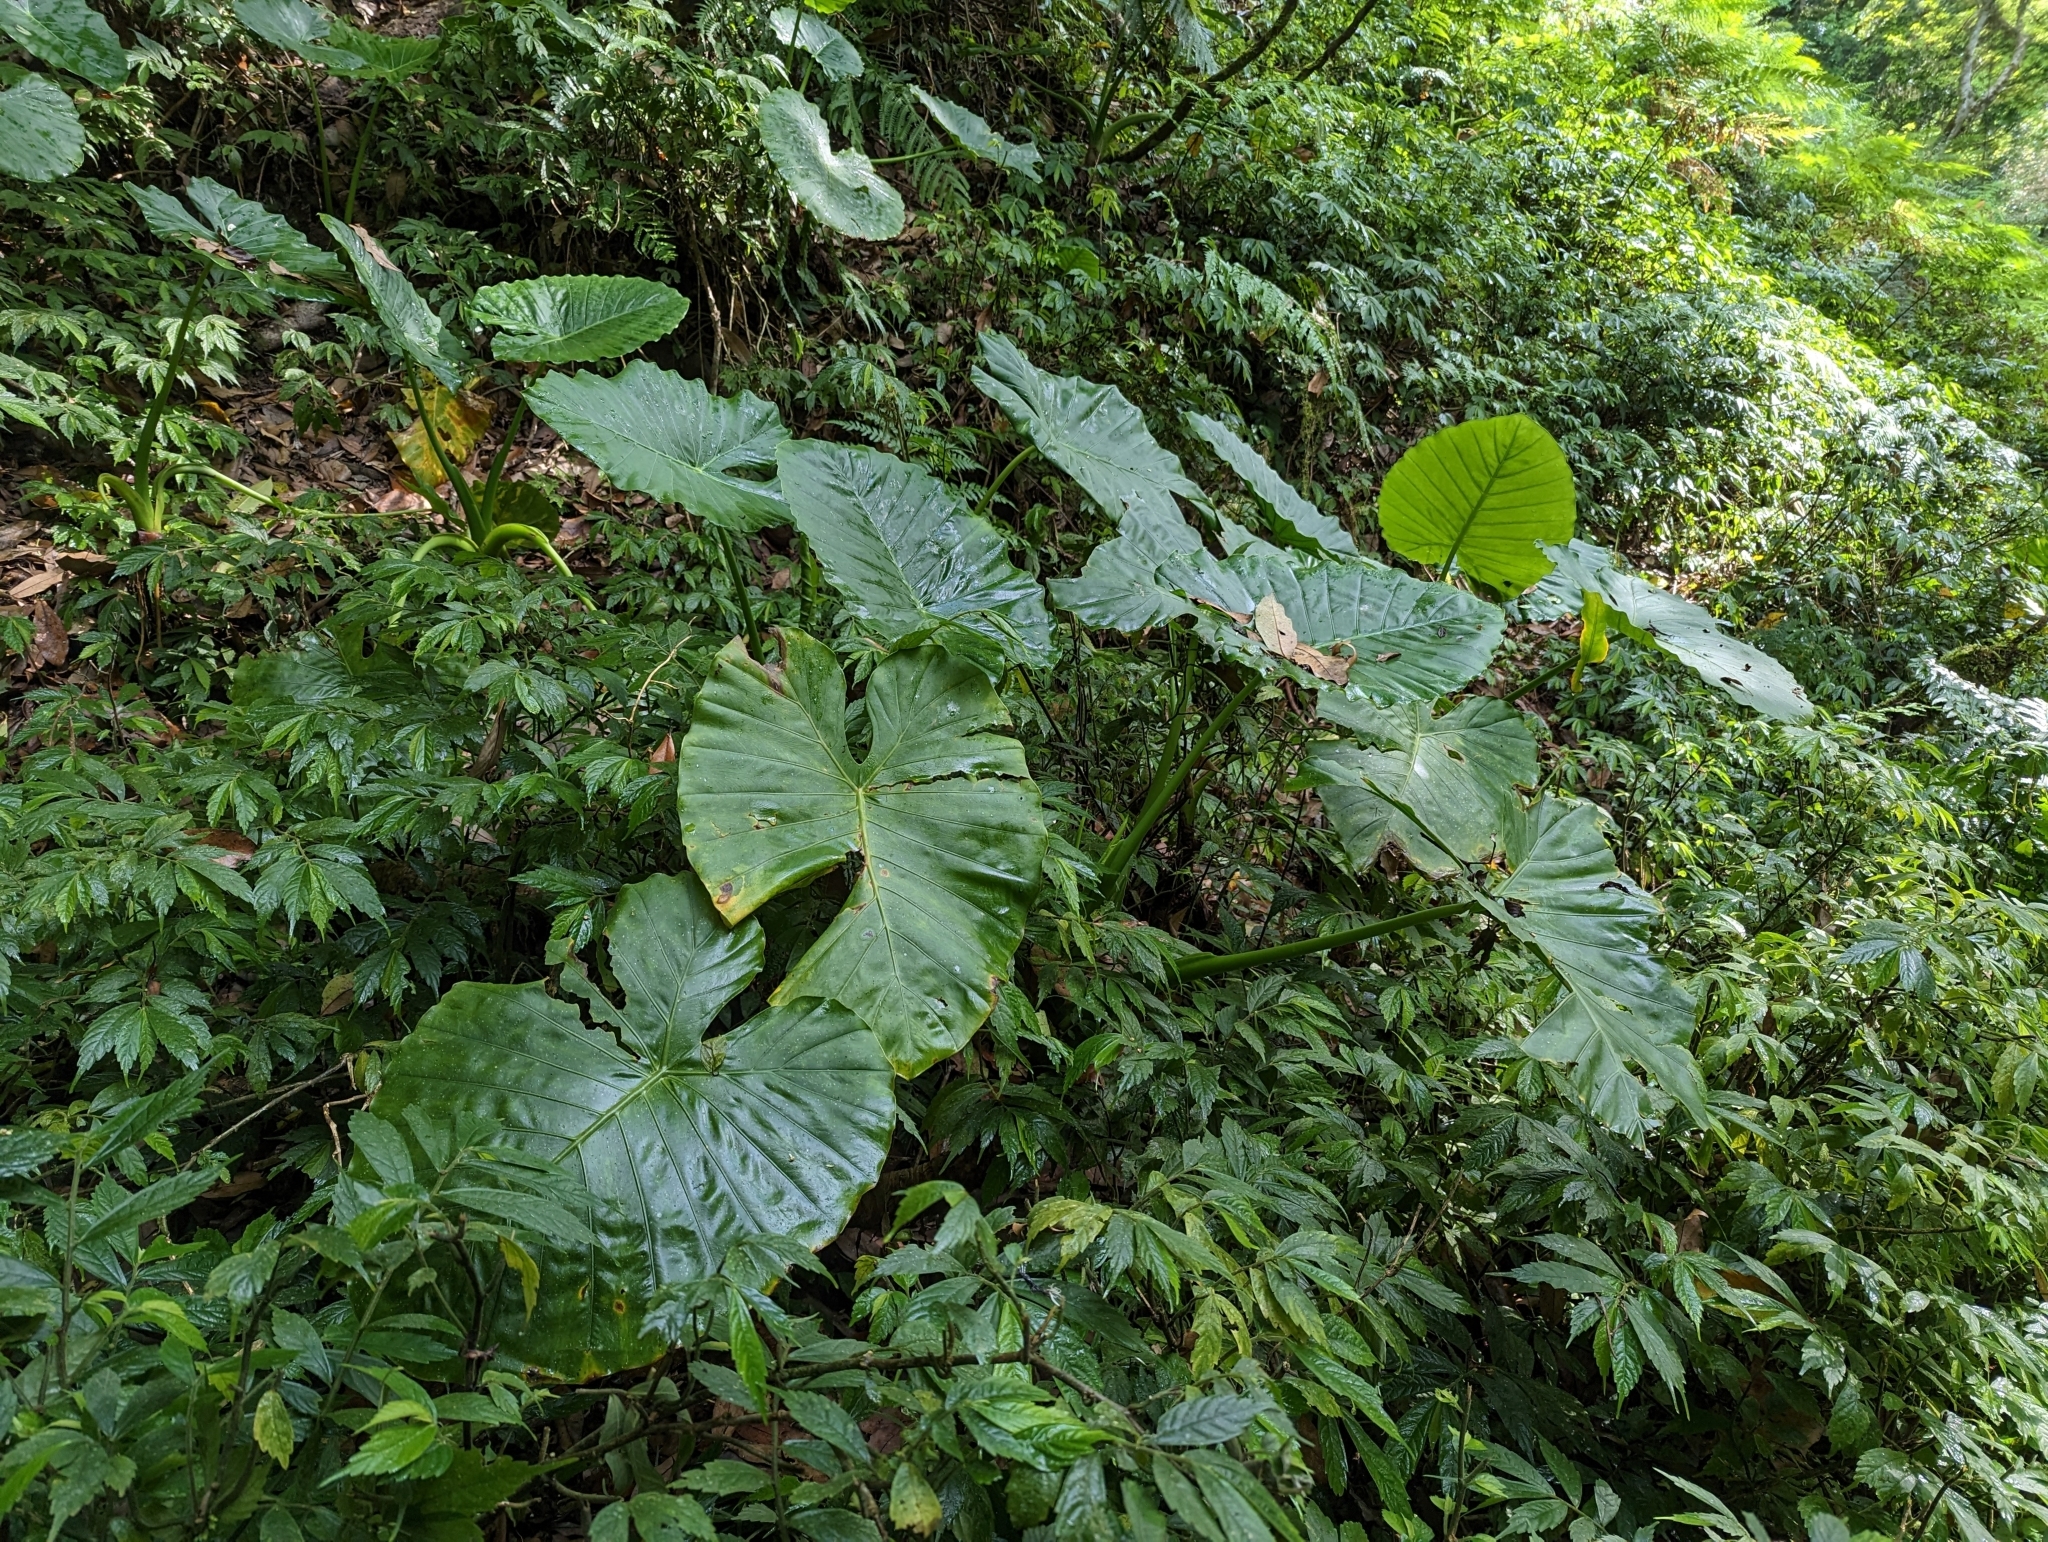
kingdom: Plantae
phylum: Tracheophyta
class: Liliopsida
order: Alismatales
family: Araceae
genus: Alocasia
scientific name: Alocasia odora
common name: Asian taro
